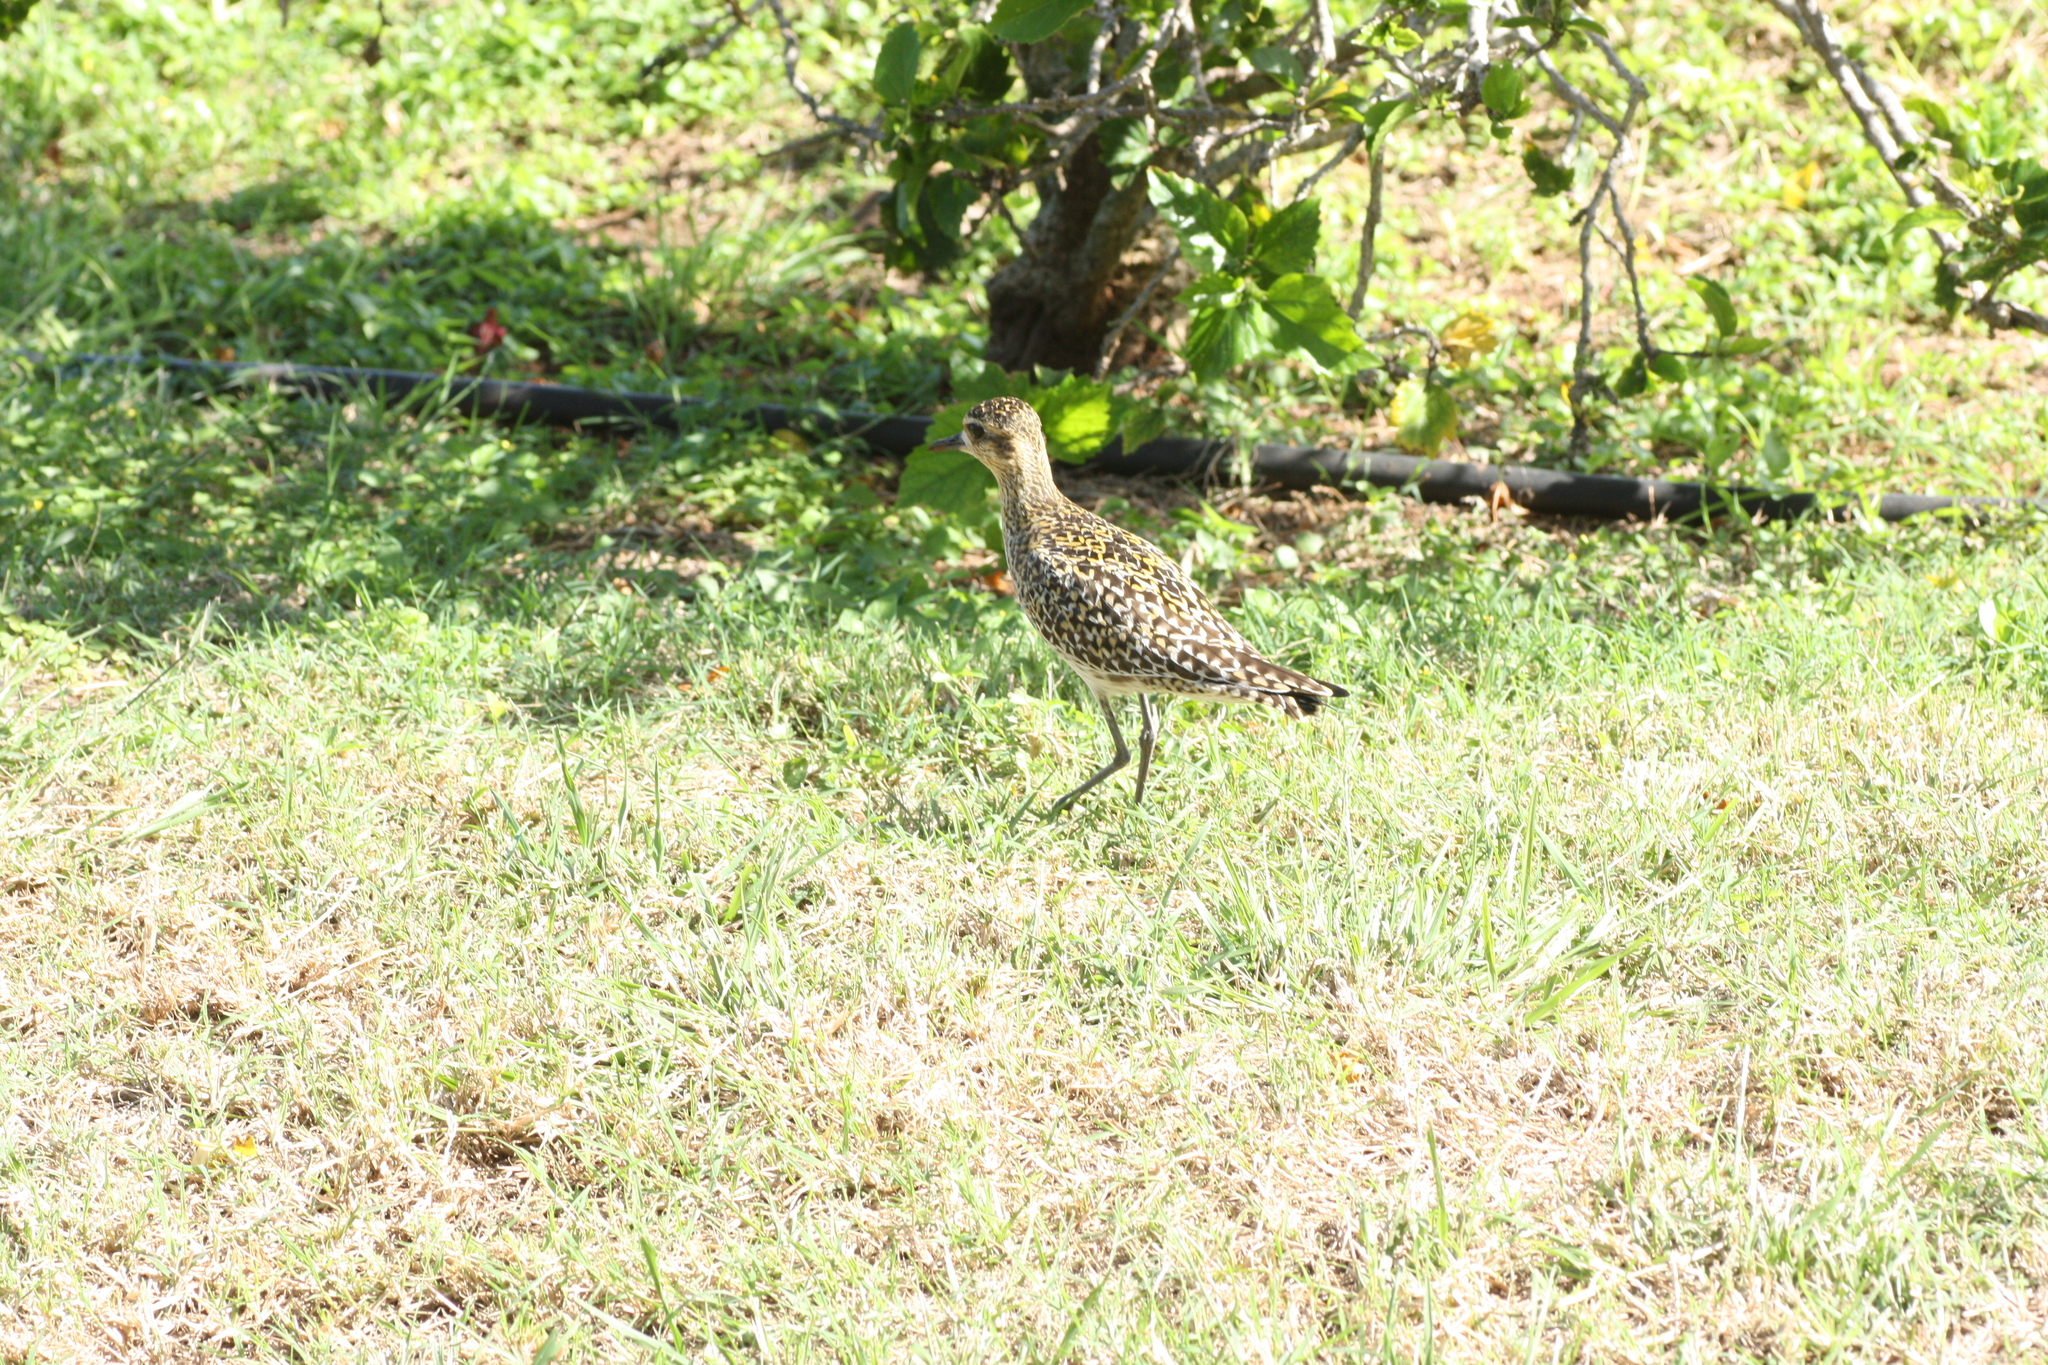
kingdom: Animalia
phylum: Chordata
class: Aves
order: Charadriiformes
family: Charadriidae
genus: Pluvialis
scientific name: Pluvialis fulva
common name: Pacific golden plover
